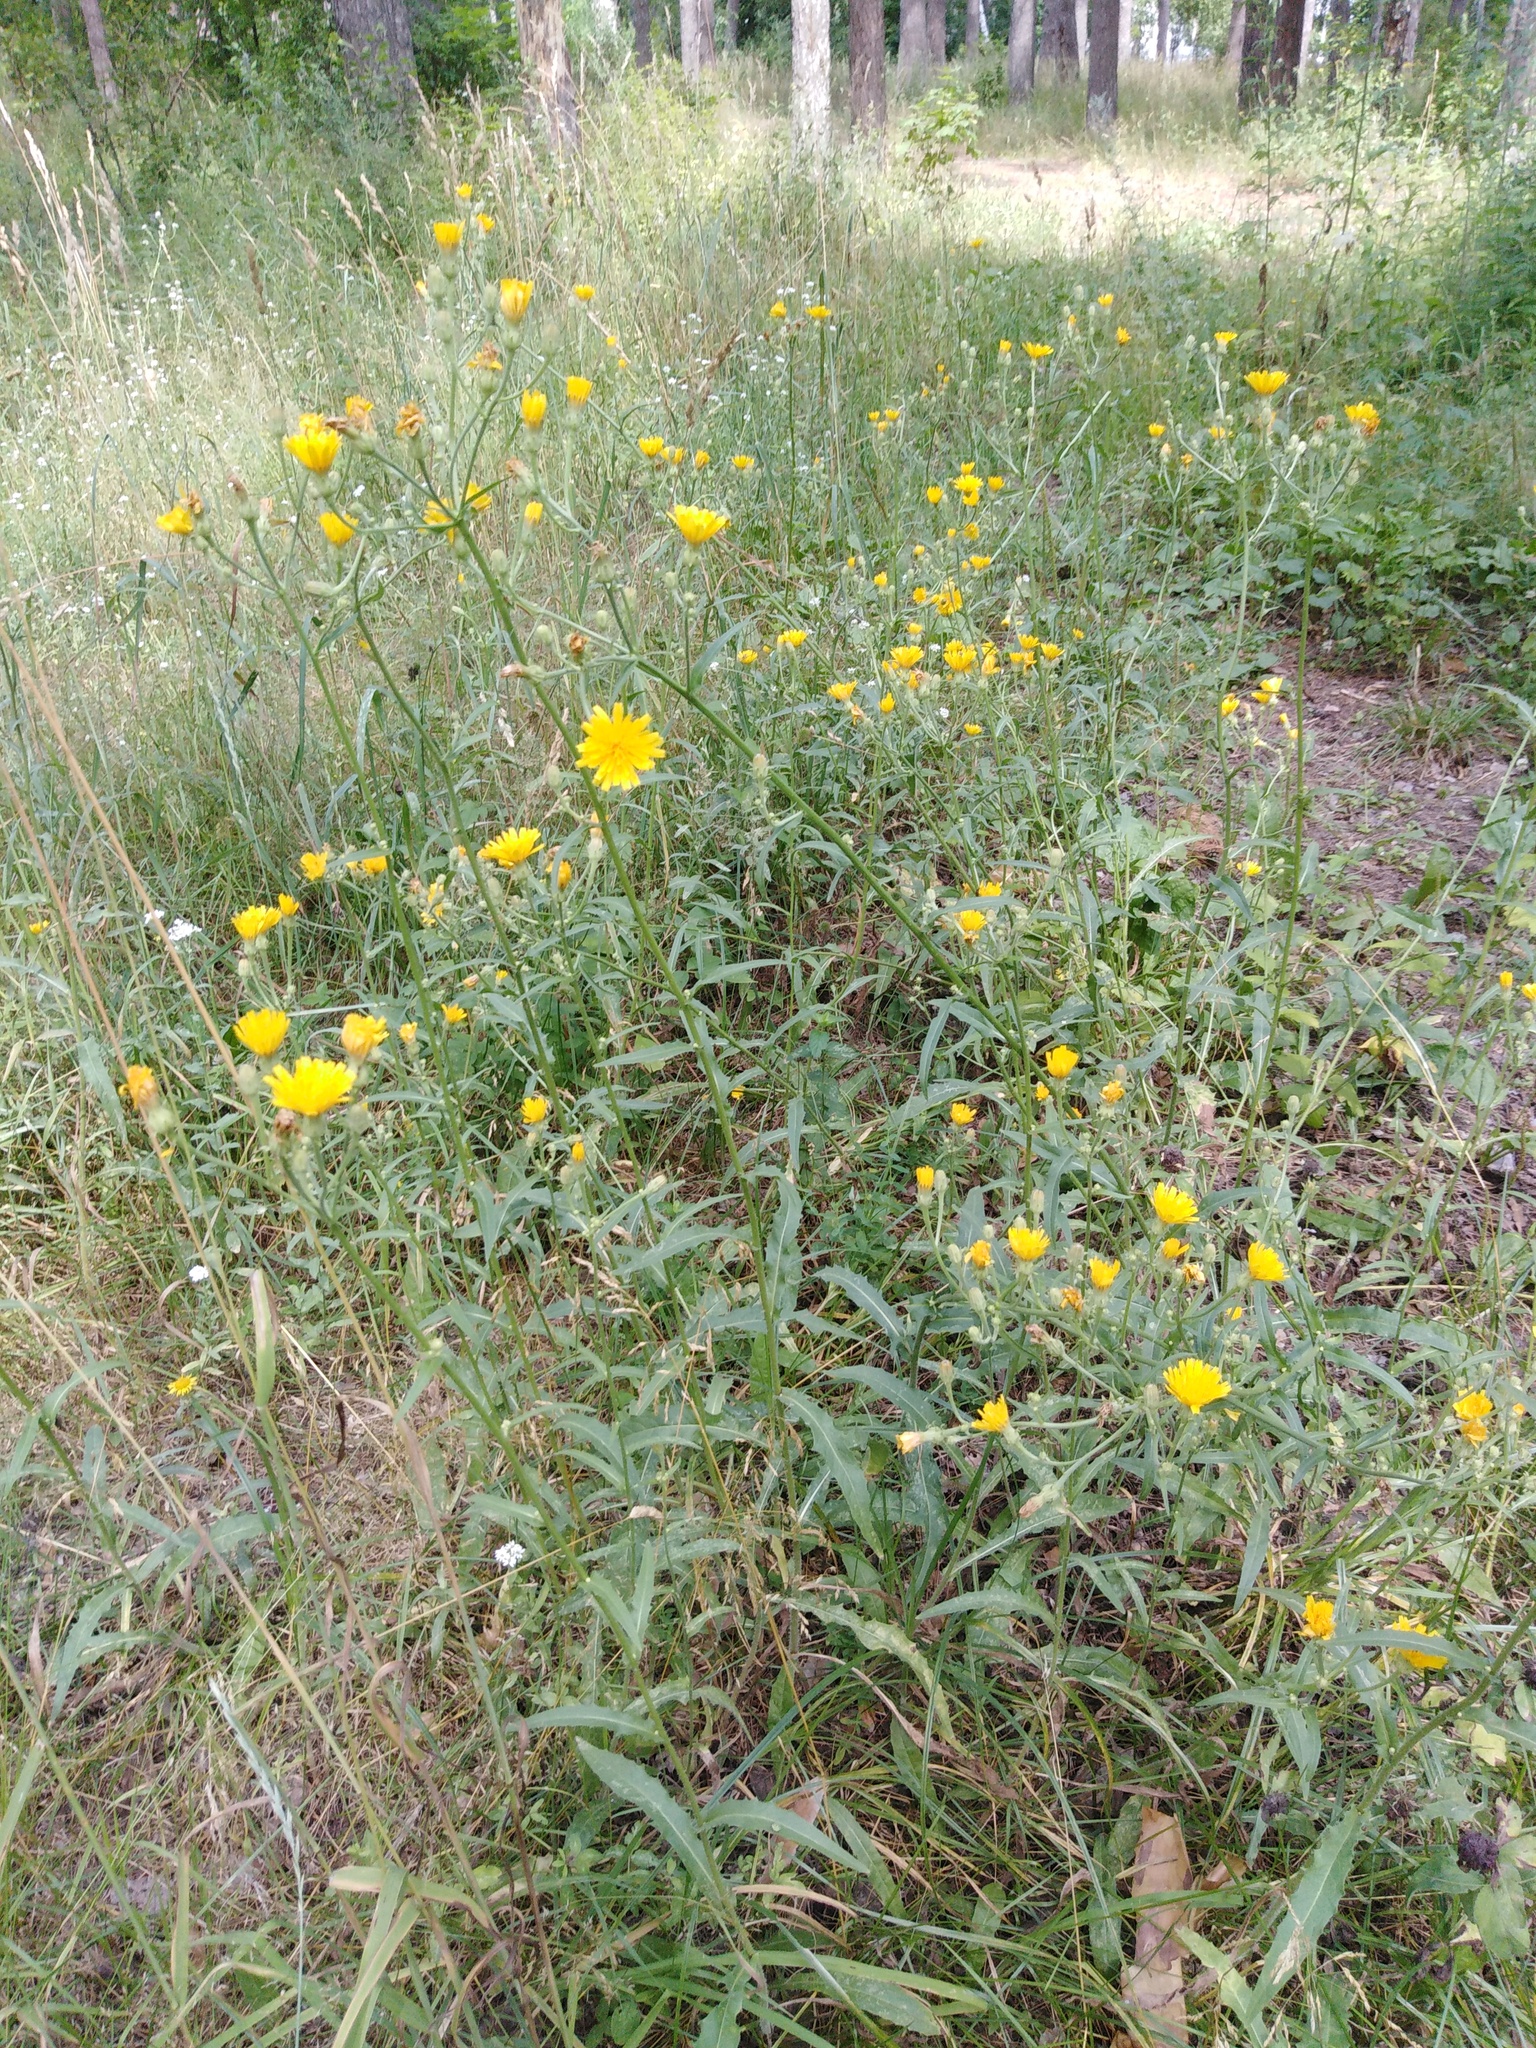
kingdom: Plantae
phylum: Tracheophyta
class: Magnoliopsida
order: Asterales
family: Asteraceae
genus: Picris
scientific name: Picris hieracioides
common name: Hawkweed oxtongue
